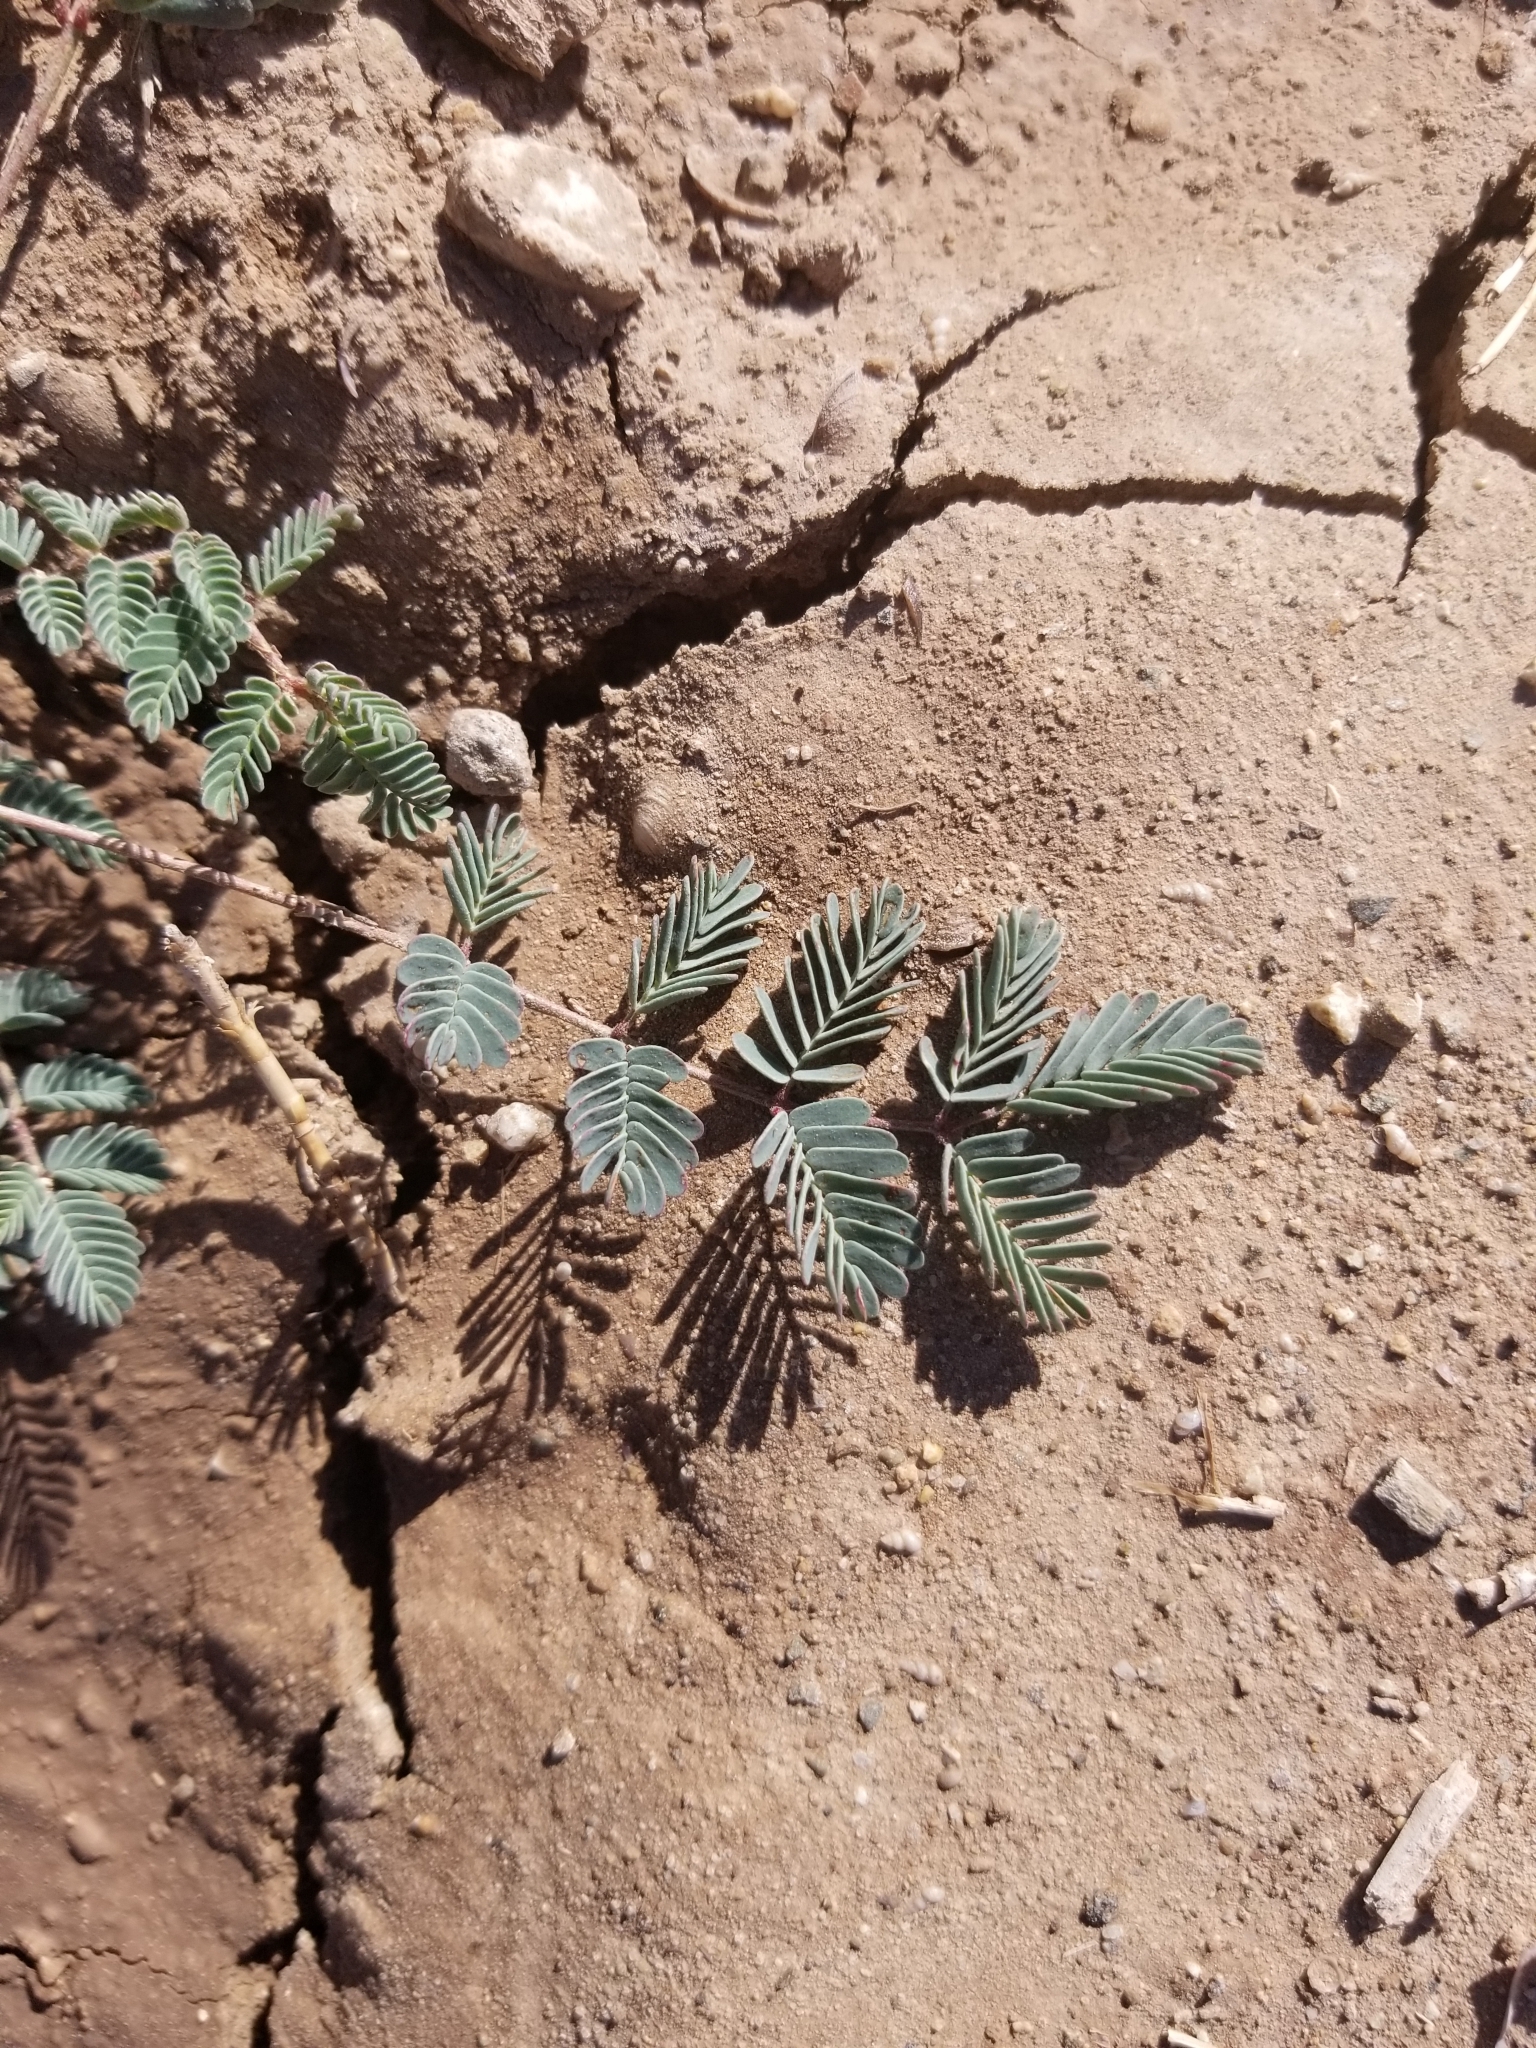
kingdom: Plantae
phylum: Tracheophyta
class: Magnoliopsida
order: Fabales
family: Fabaceae
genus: Hoffmannseggia
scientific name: Hoffmannseggia glauca
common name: Pignut
